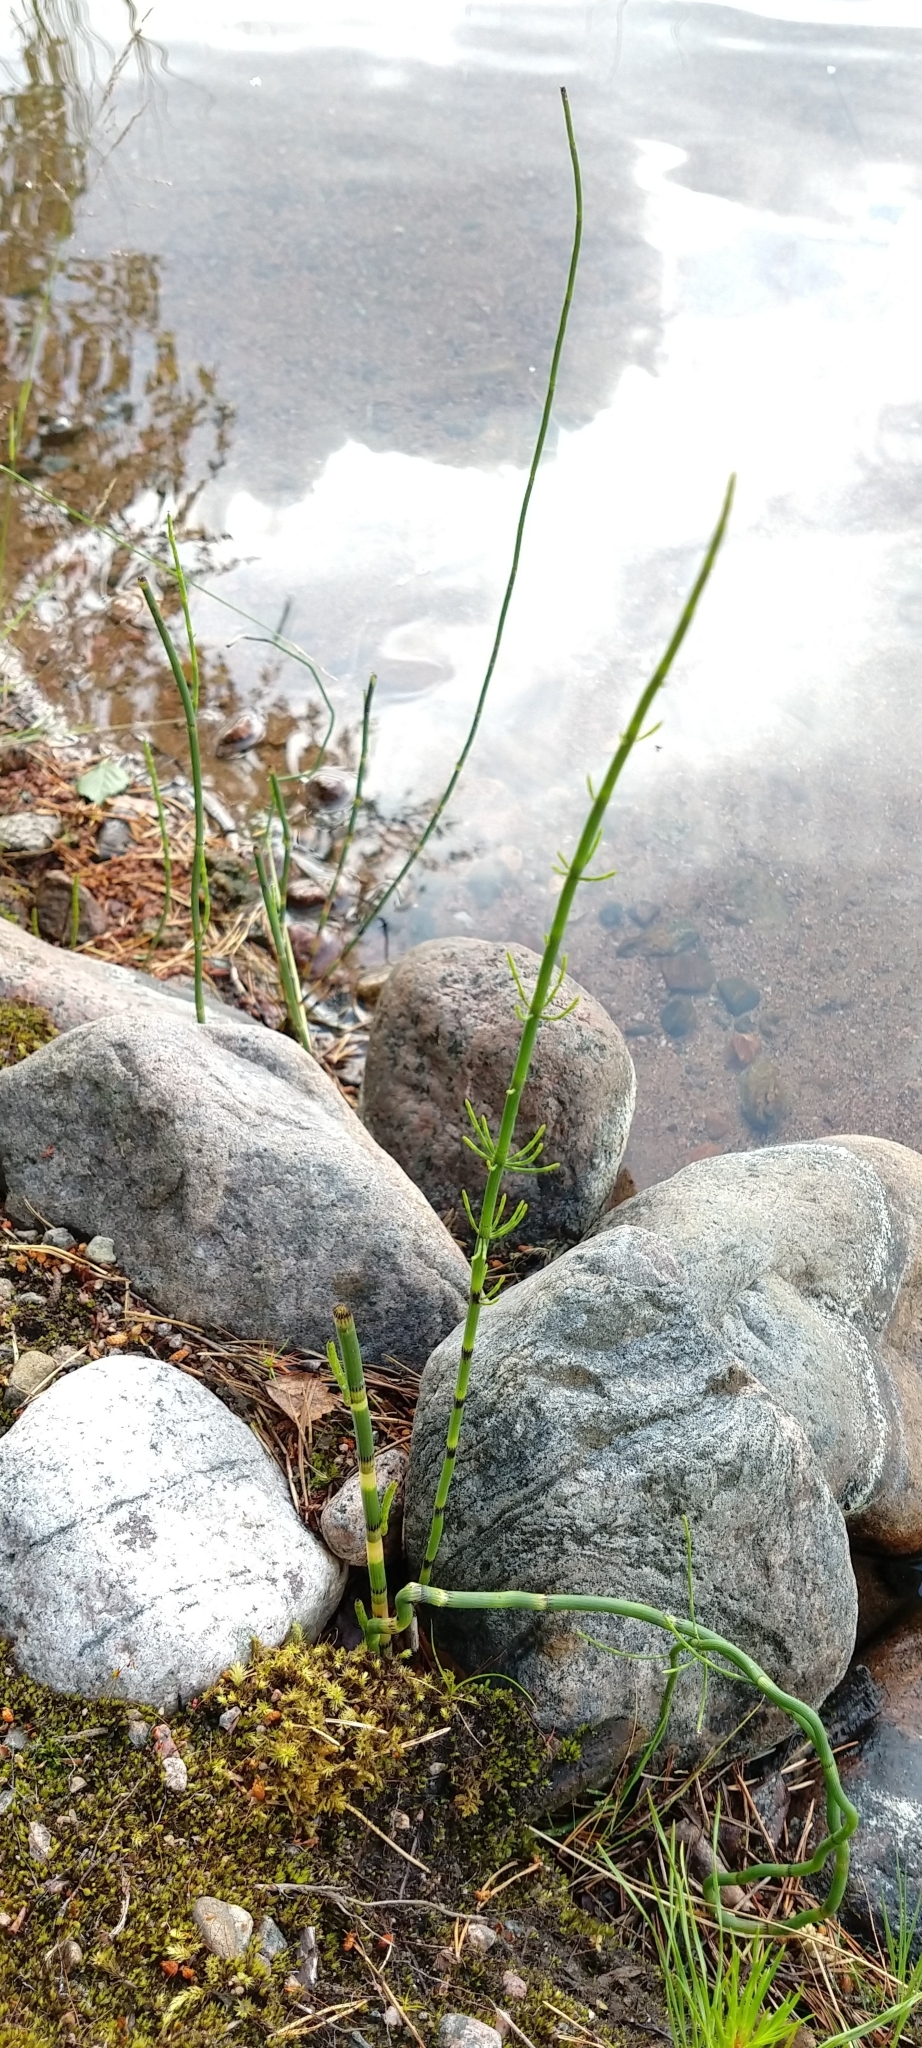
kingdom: Plantae
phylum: Tracheophyta
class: Polypodiopsida
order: Equisetales
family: Equisetaceae
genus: Equisetum
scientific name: Equisetum fluviatile
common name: Water horsetail
